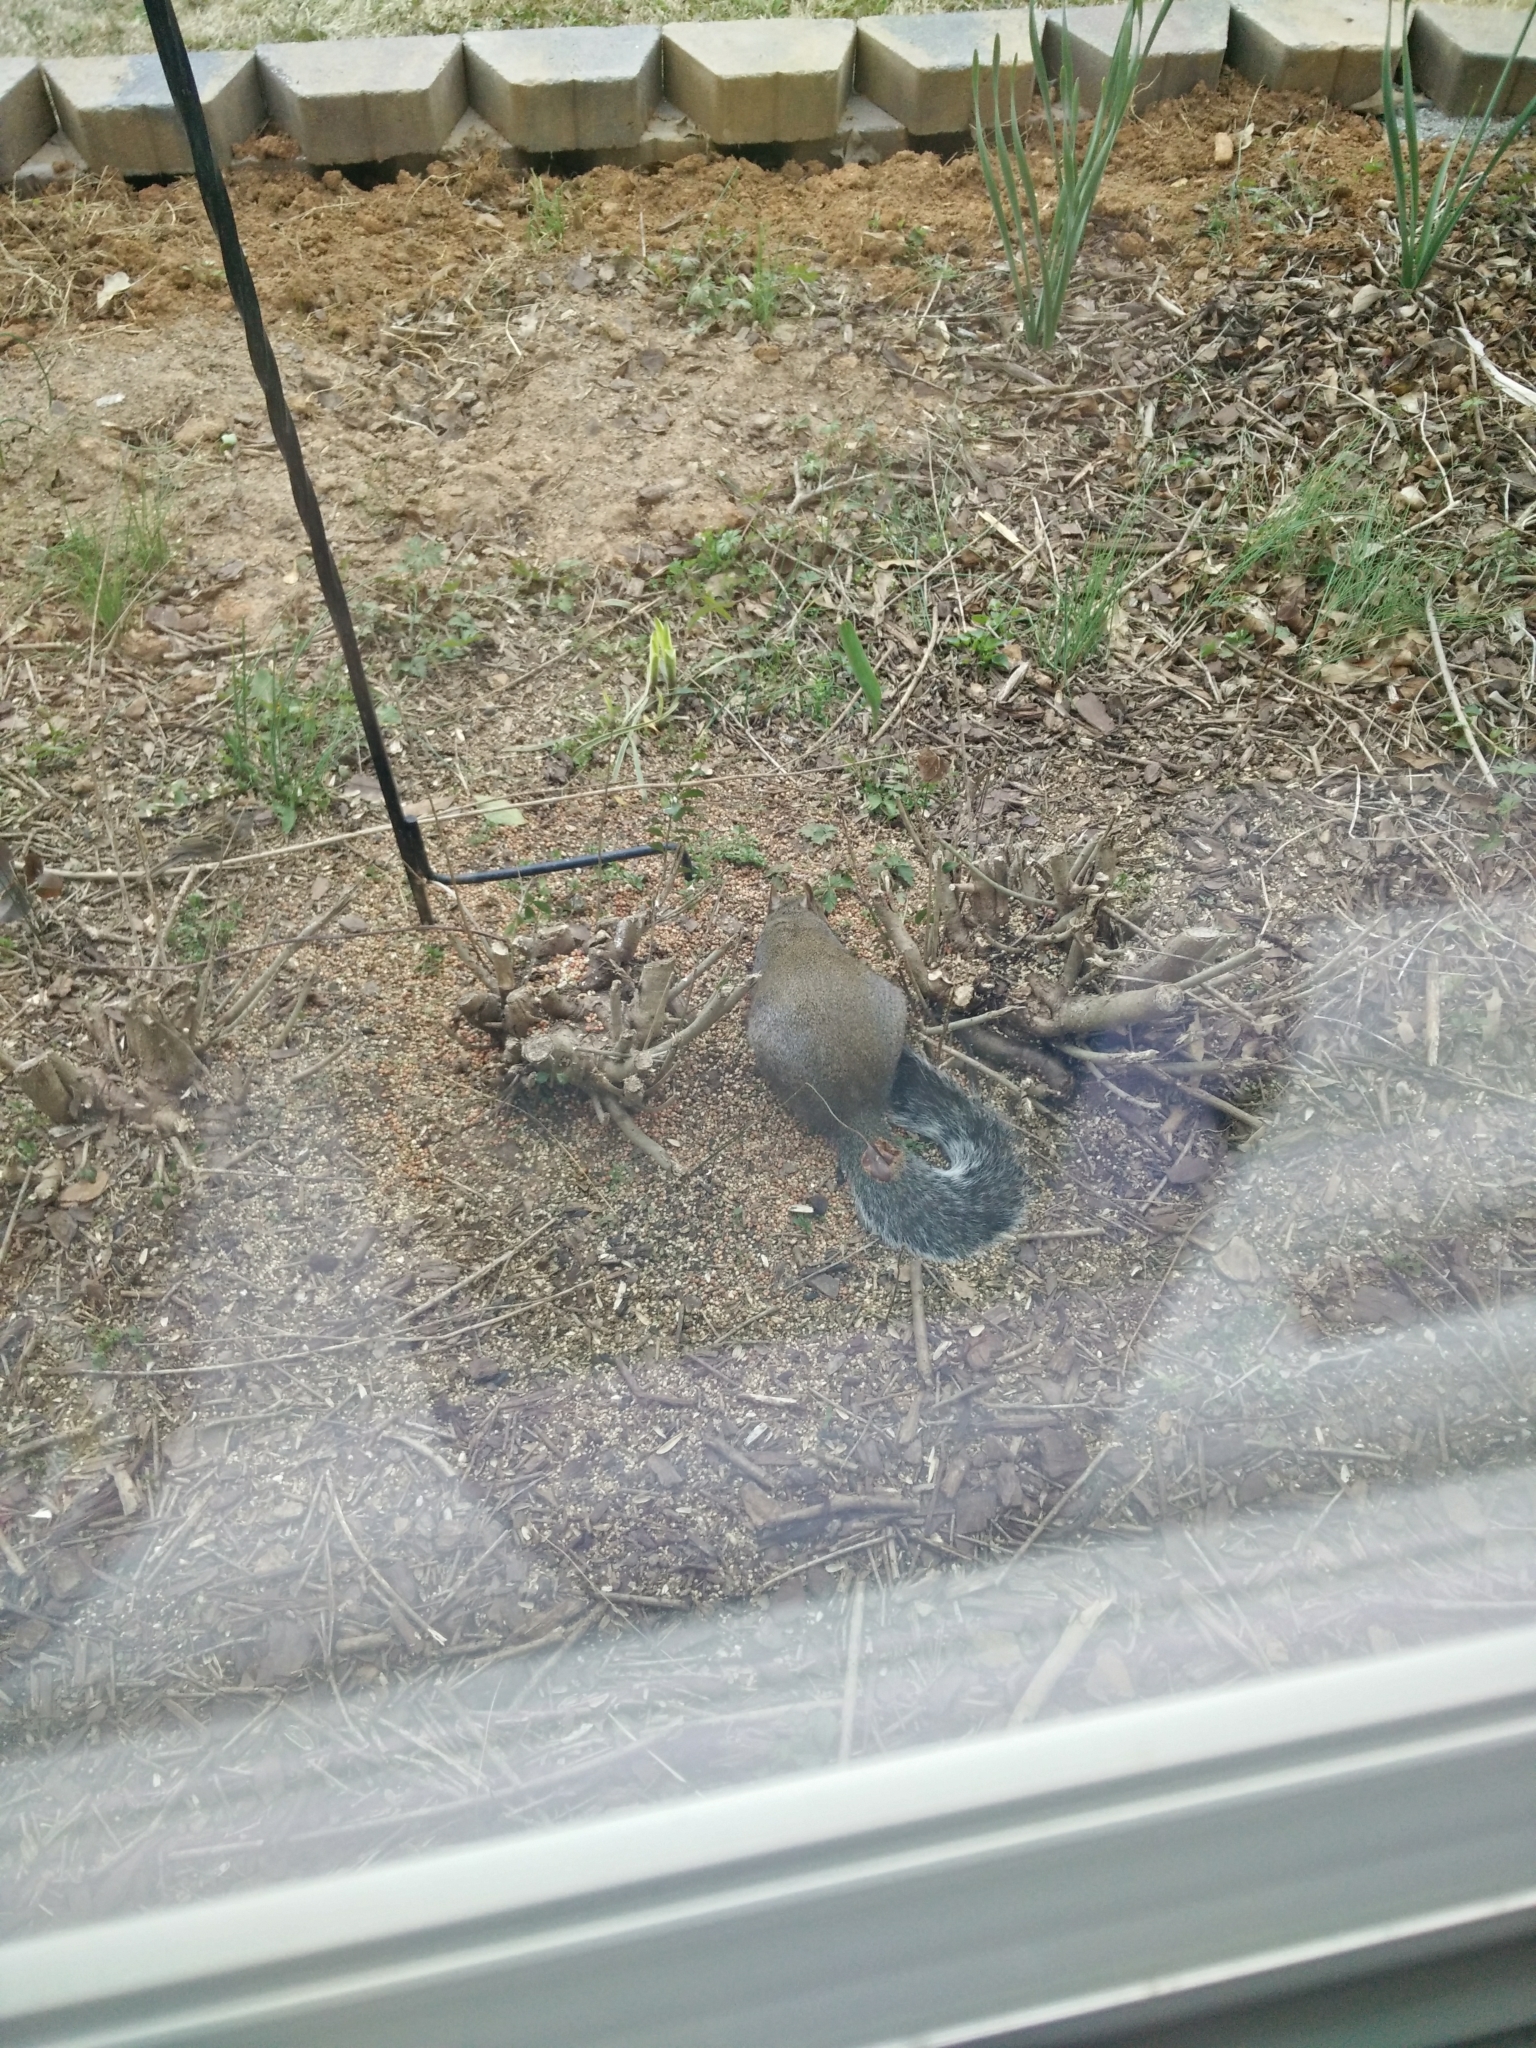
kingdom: Animalia
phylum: Chordata
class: Mammalia
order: Rodentia
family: Sciuridae
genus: Sciurus
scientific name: Sciurus carolinensis
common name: Eastern gray squirrel
